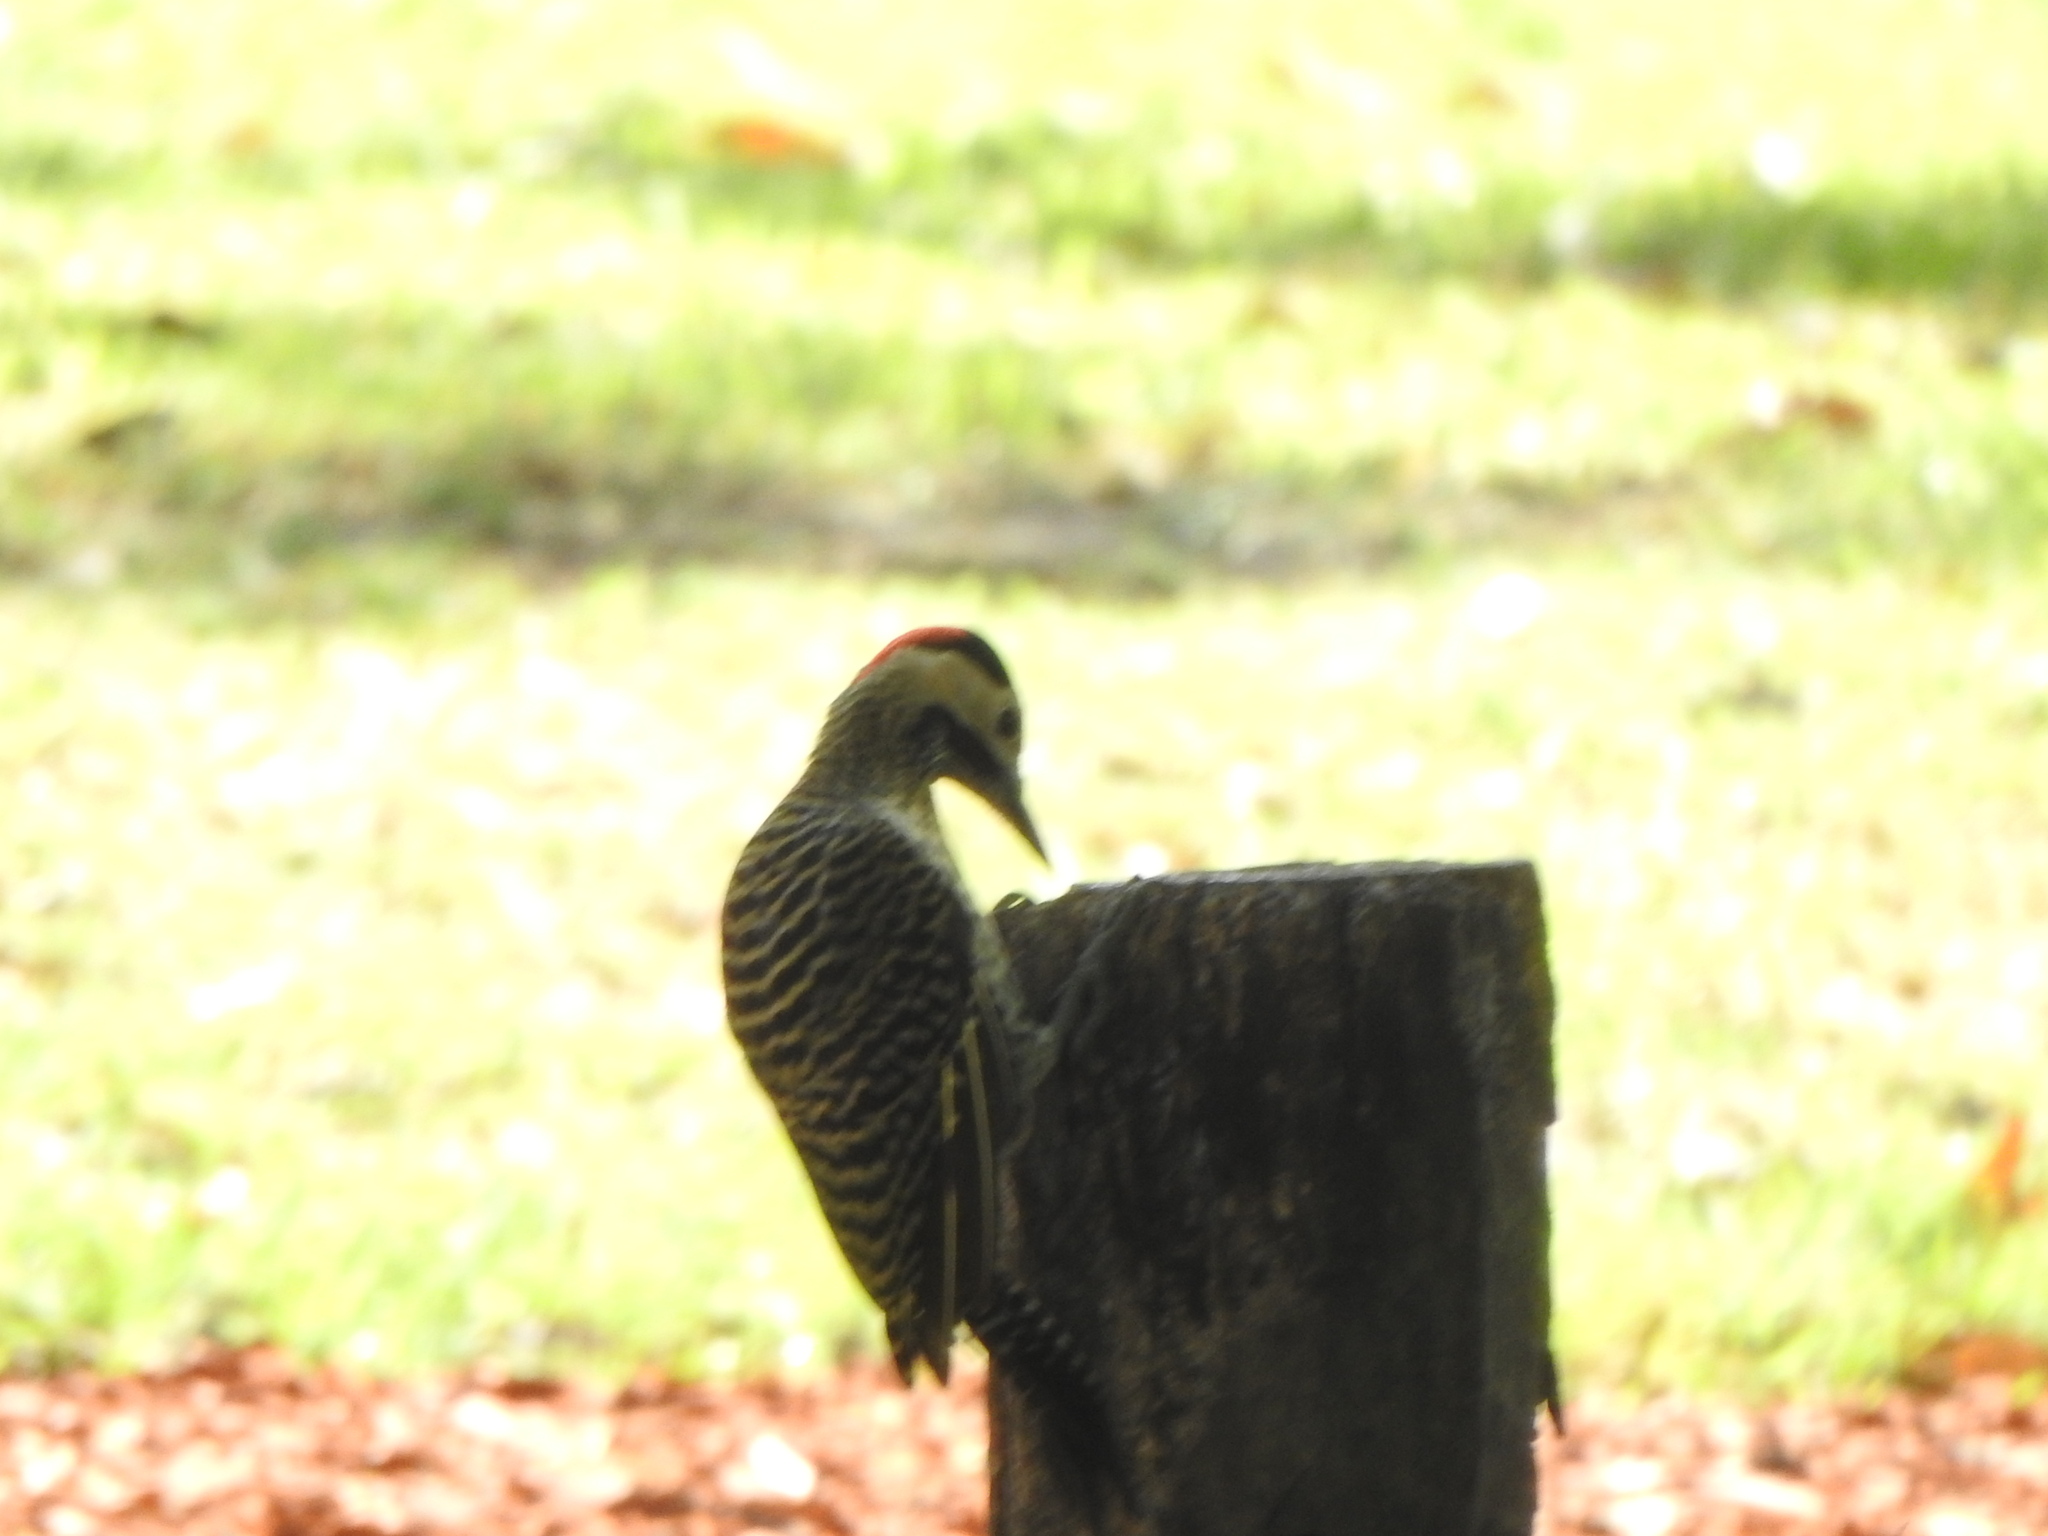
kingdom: Animalia
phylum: Chordata
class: Aves
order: Piciformes
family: Picidae
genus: Colaptes
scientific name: Colaptes melanochloros
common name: Green-barred woodpecker
